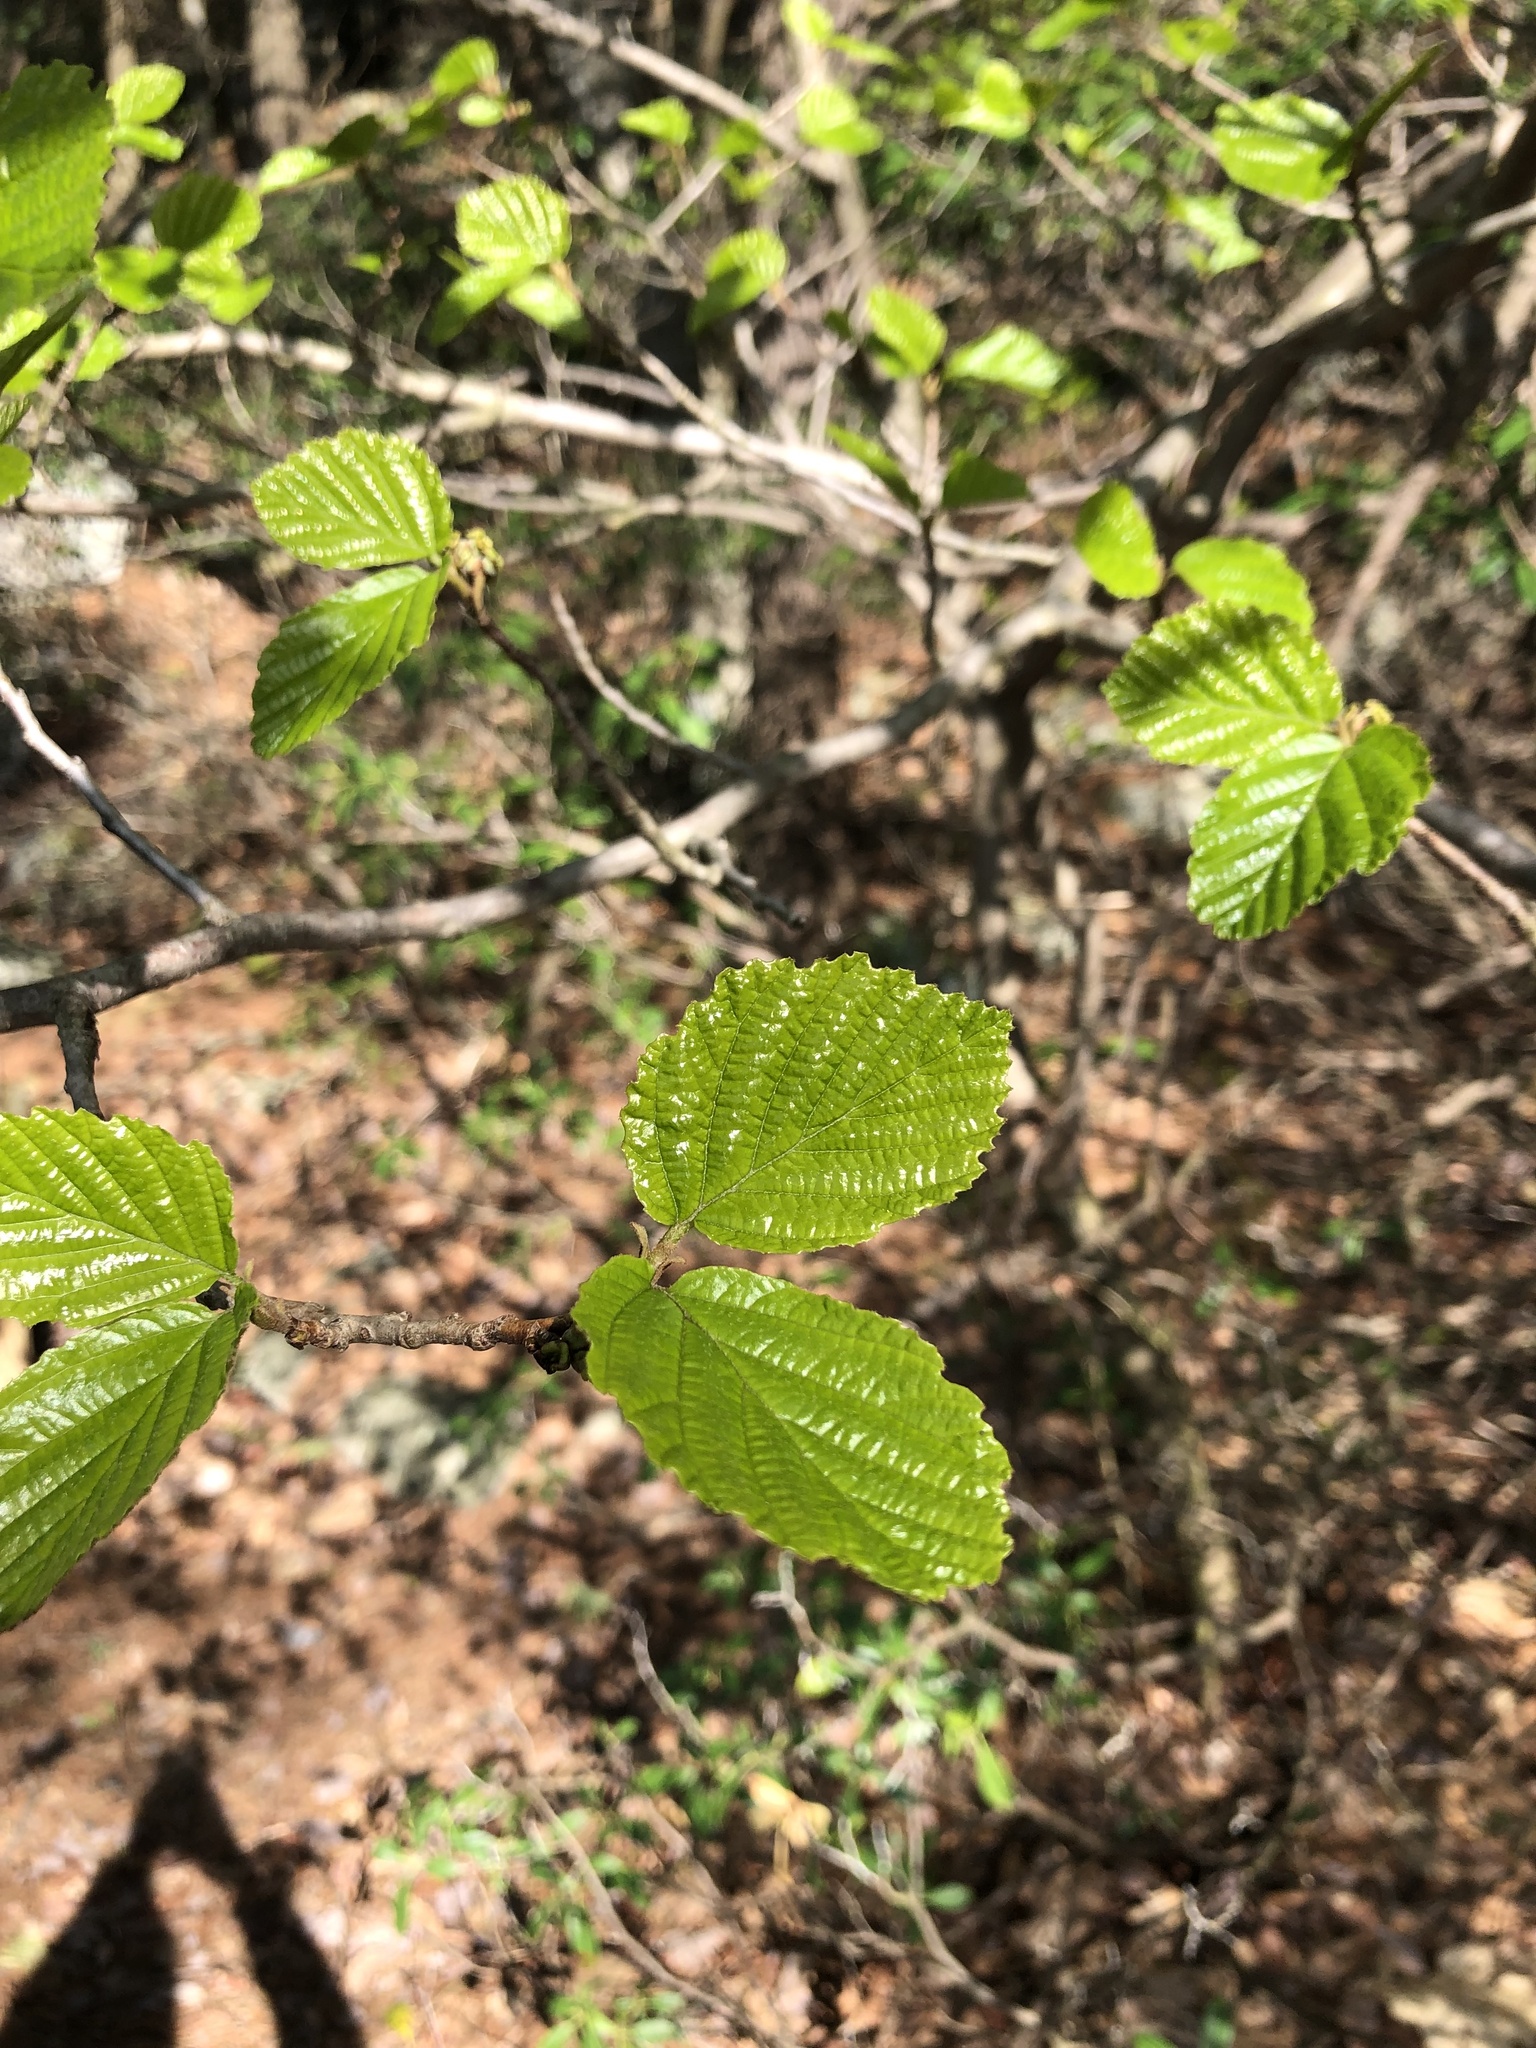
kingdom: Plantae
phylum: Tracheophyta
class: Magnoliopsida
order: Saxifragales
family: Hamamelidaceae
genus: Hamamelis
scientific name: Hamamelis virginiana
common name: Witch-hazel
